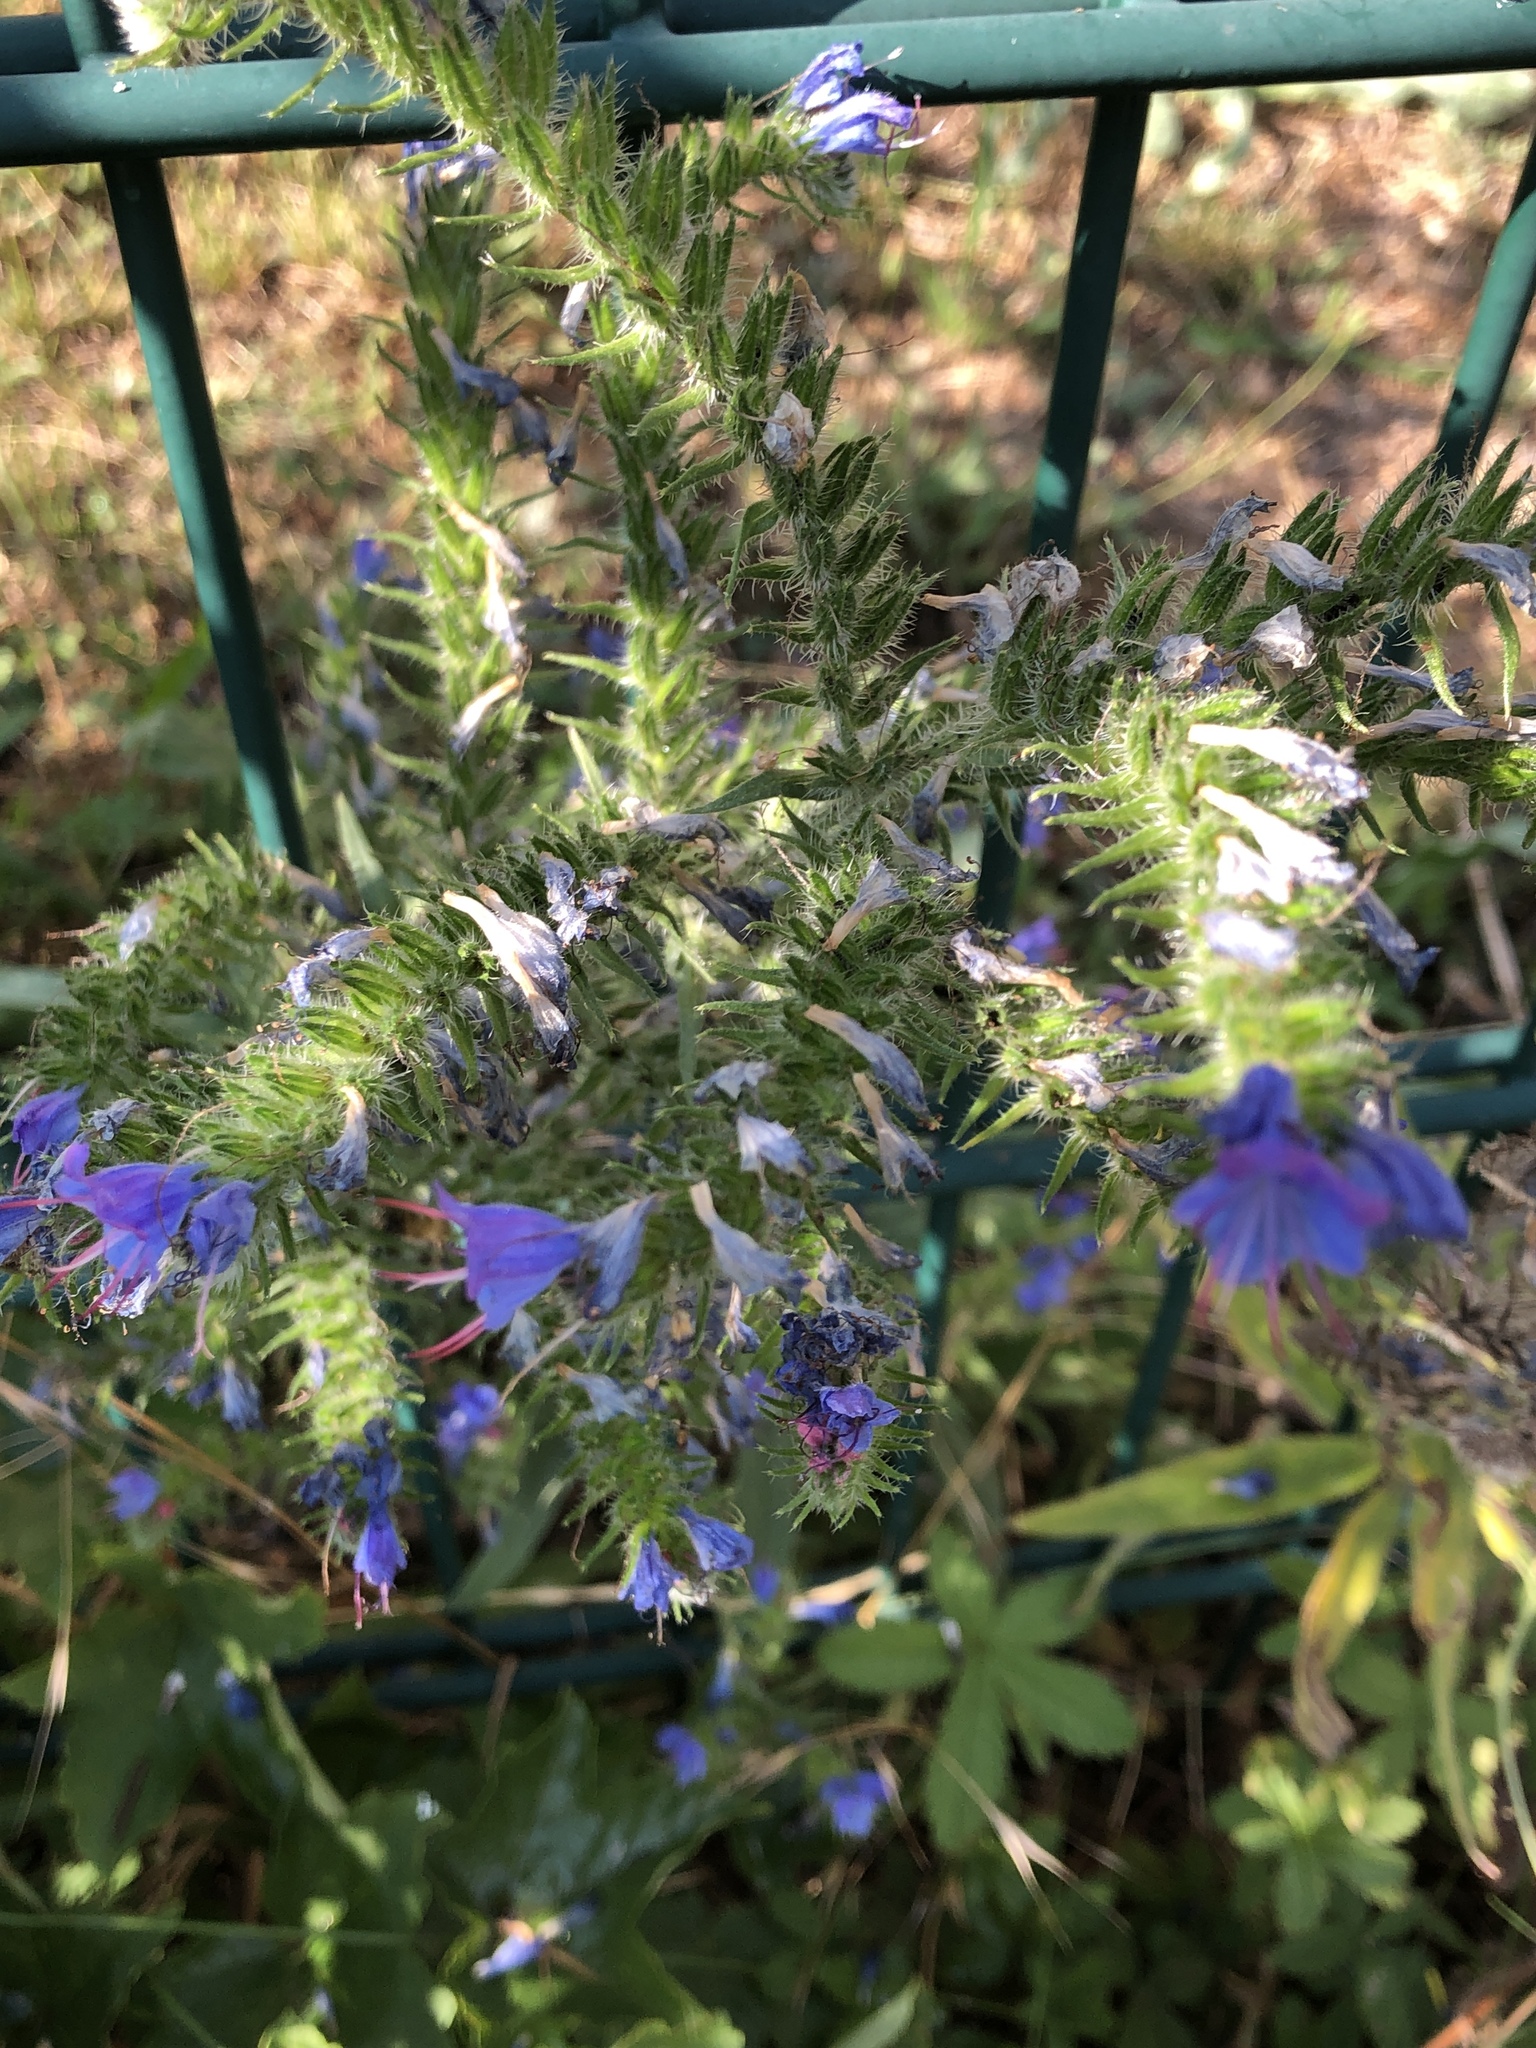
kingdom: Plantae
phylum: Tracheophyta
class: Magnoliopsida
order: Boraginales
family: Boraginaceae
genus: Echium
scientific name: Echium vulgare
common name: Common viper's bugloss
